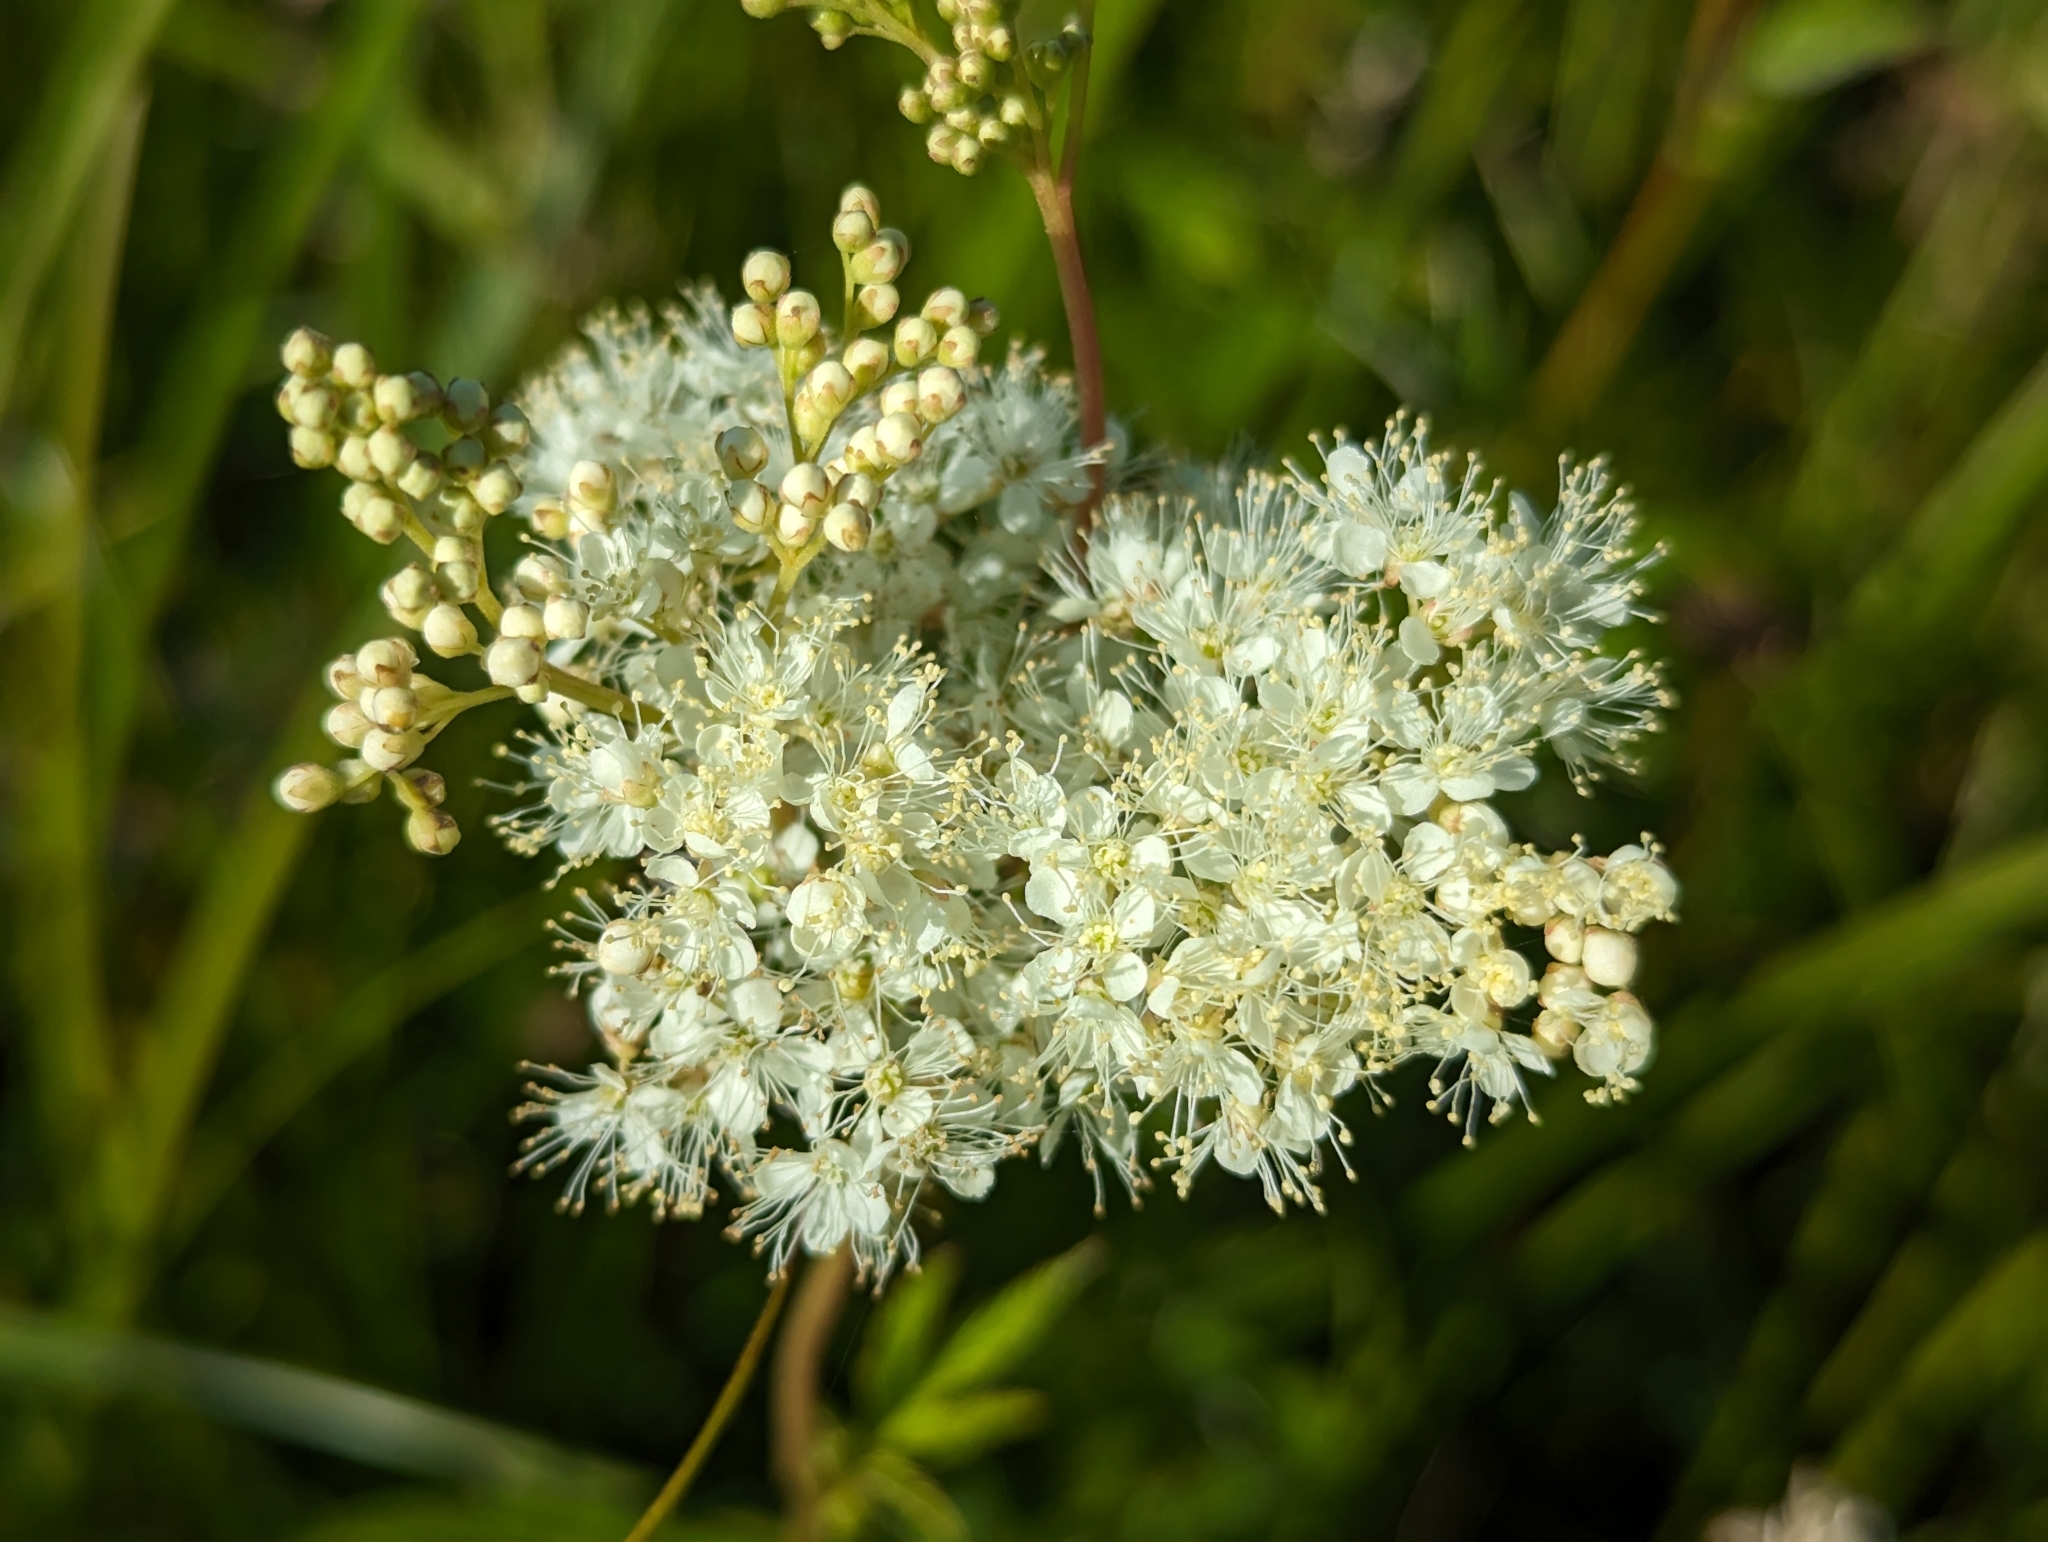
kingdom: Plantae
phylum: Tracheophyta
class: Magnoliopsida
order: Rosales
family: Rosaceae
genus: Filipendula
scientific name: Filipendula ulmaria
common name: Meadowsweet
